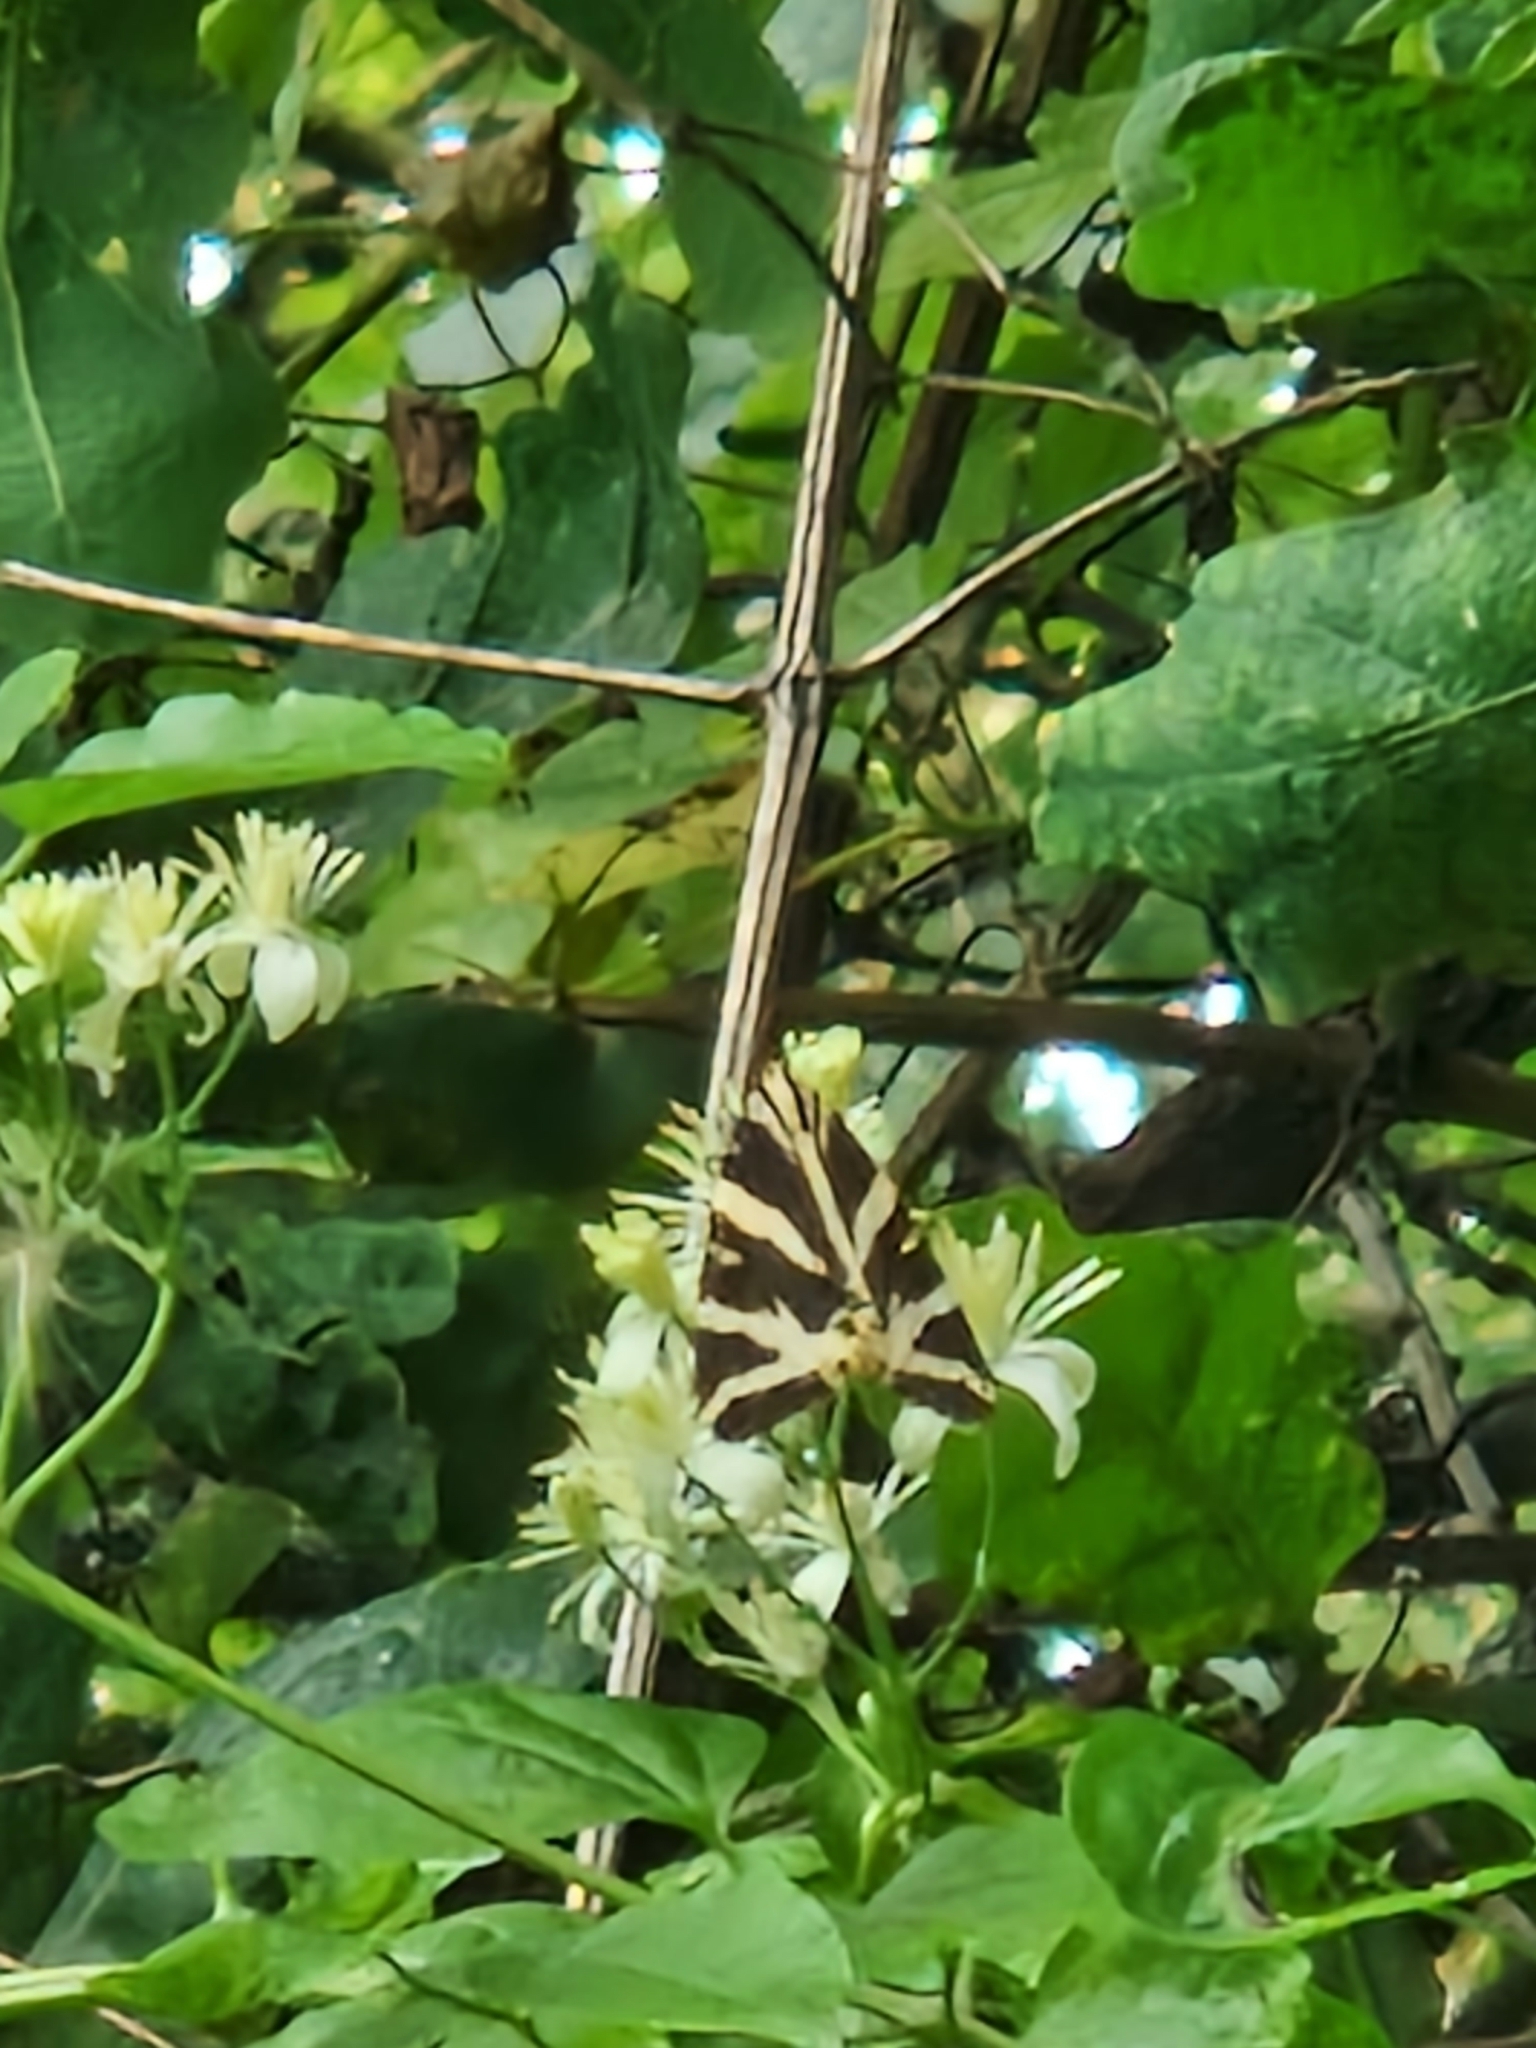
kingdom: Animalia
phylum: Arthropoda
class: Insecta
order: Lepidoptera
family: Erebidae
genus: Euplagia
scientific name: Euplagia quadripunctaria
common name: Jersey tiger
